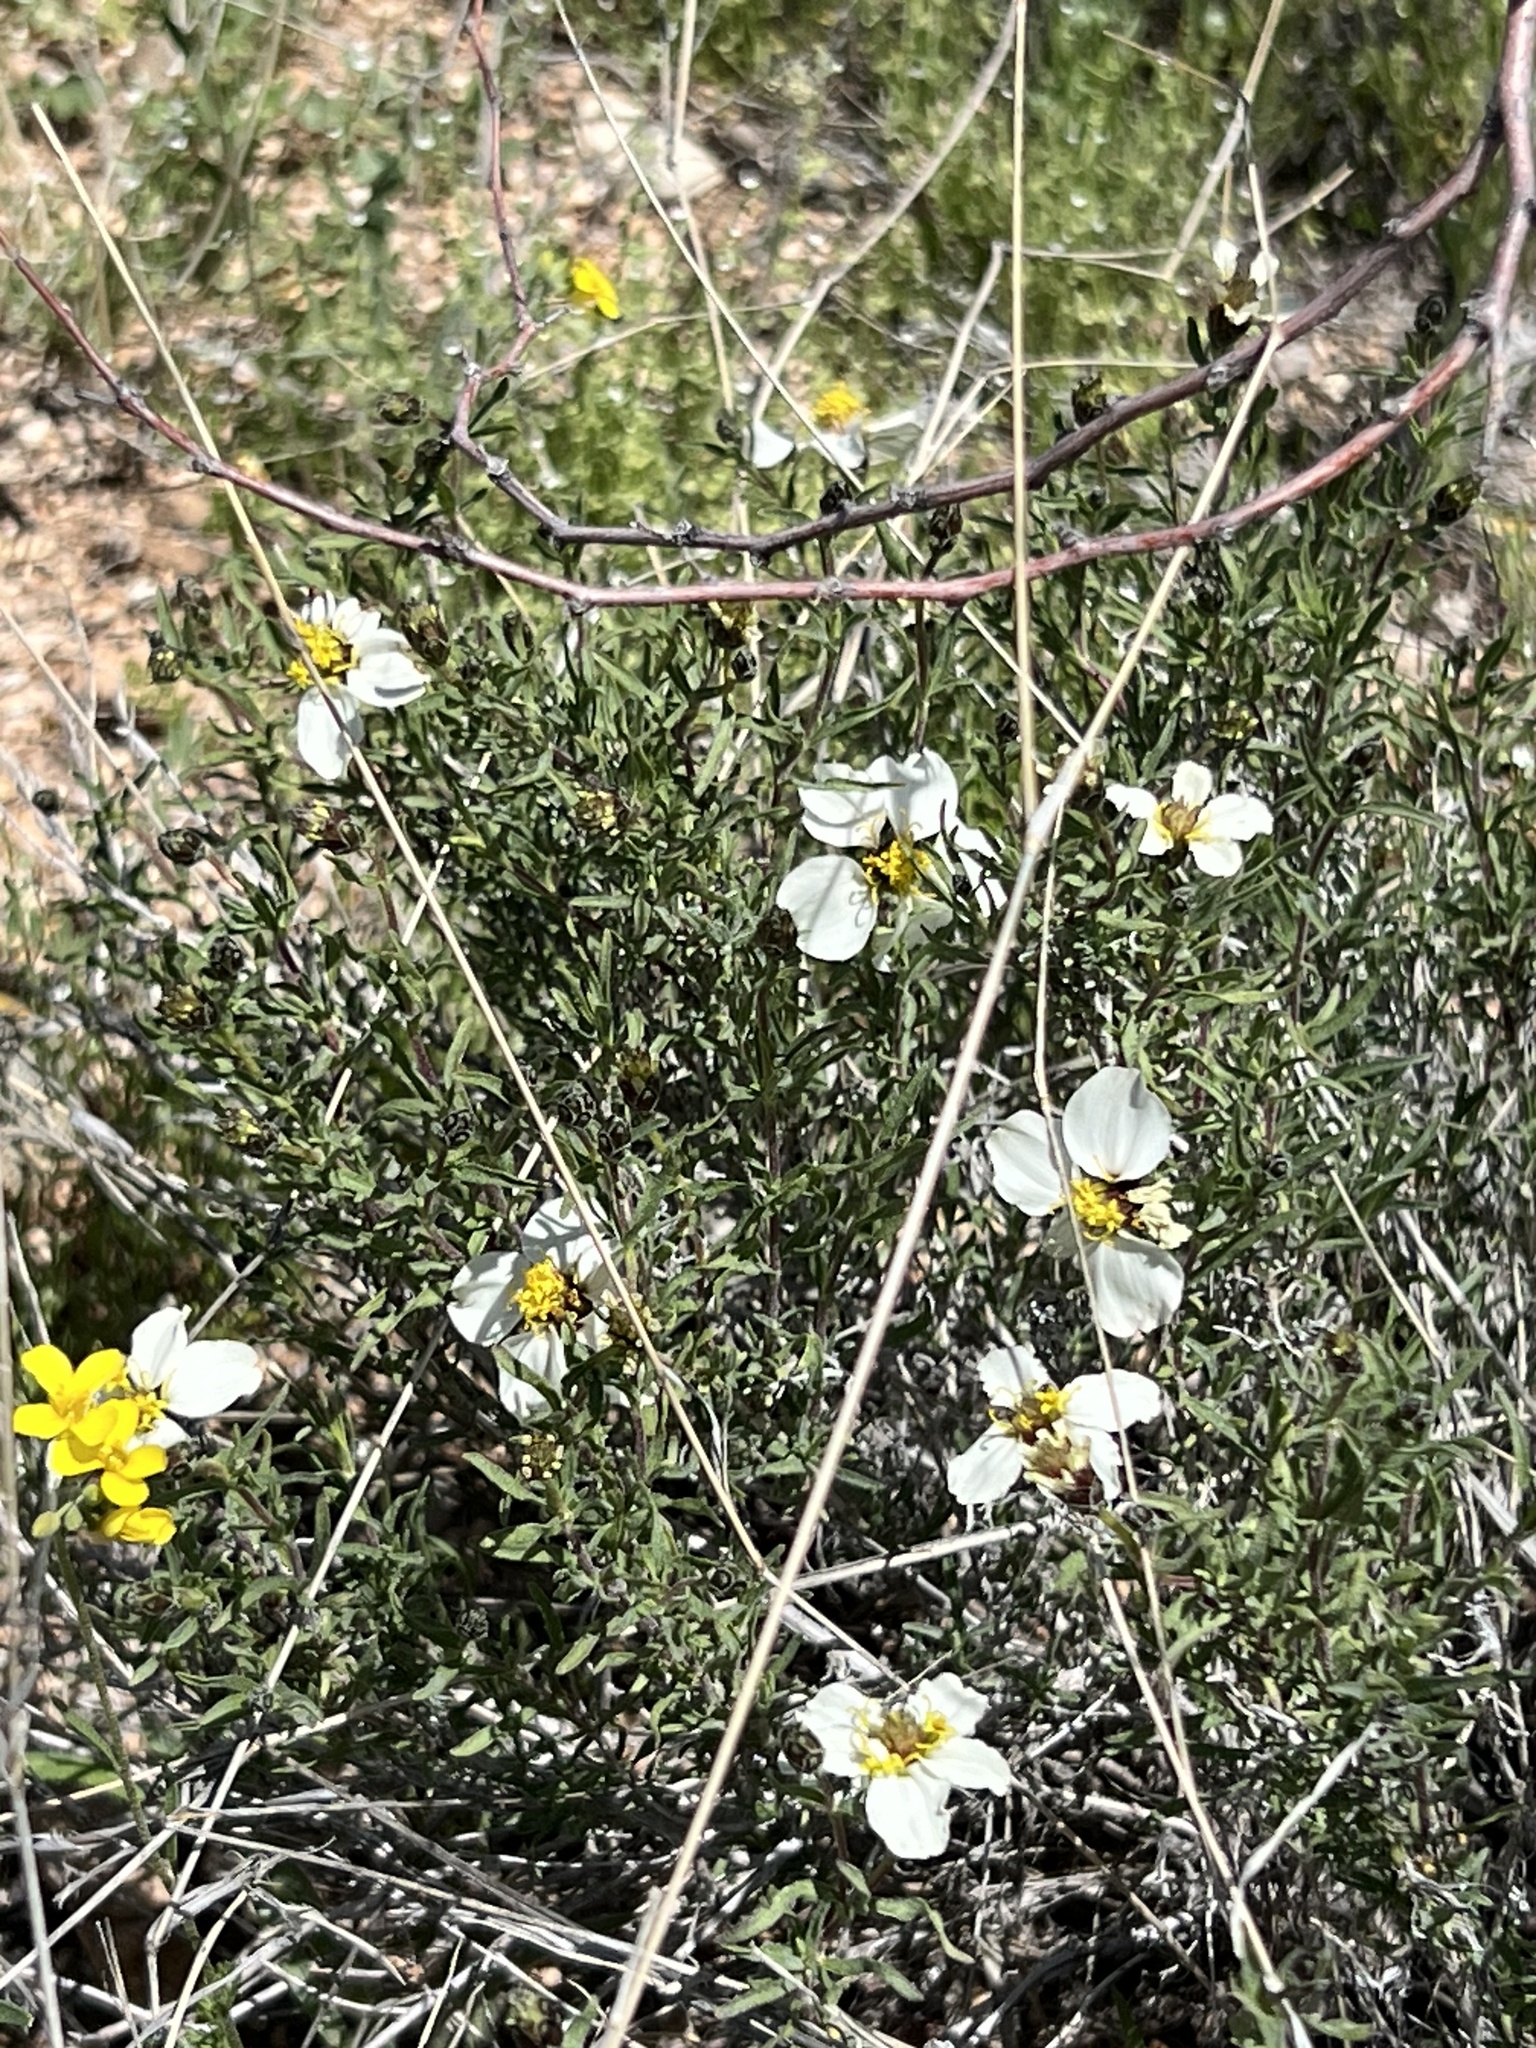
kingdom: Plantae
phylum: Tracheophyta
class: Magnoliopsida
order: Asterales
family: Asteraceae
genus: Zinnia
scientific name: Zinnia acerosa
